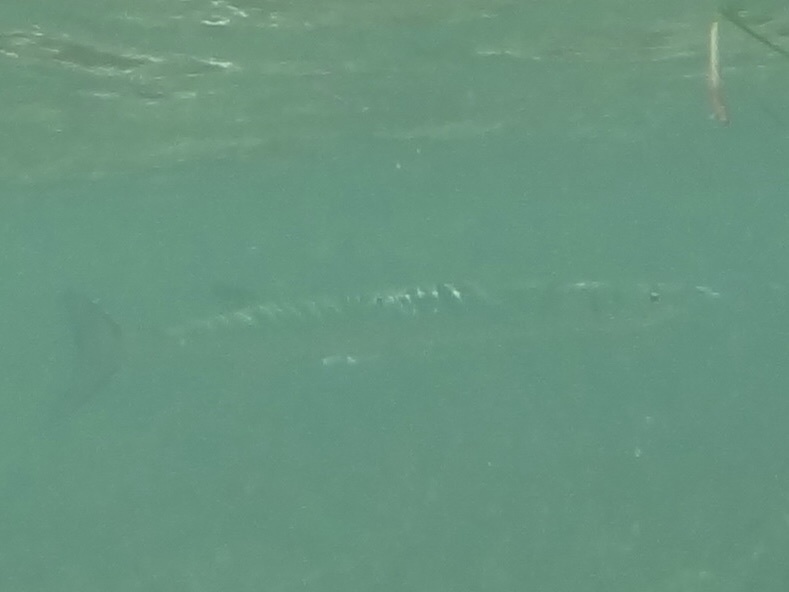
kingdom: Animalia
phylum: Chordata
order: Perciformes
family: Sphyraenidae
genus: Sphyraena
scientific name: Sphyraena barracuda
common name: Great barracuda
